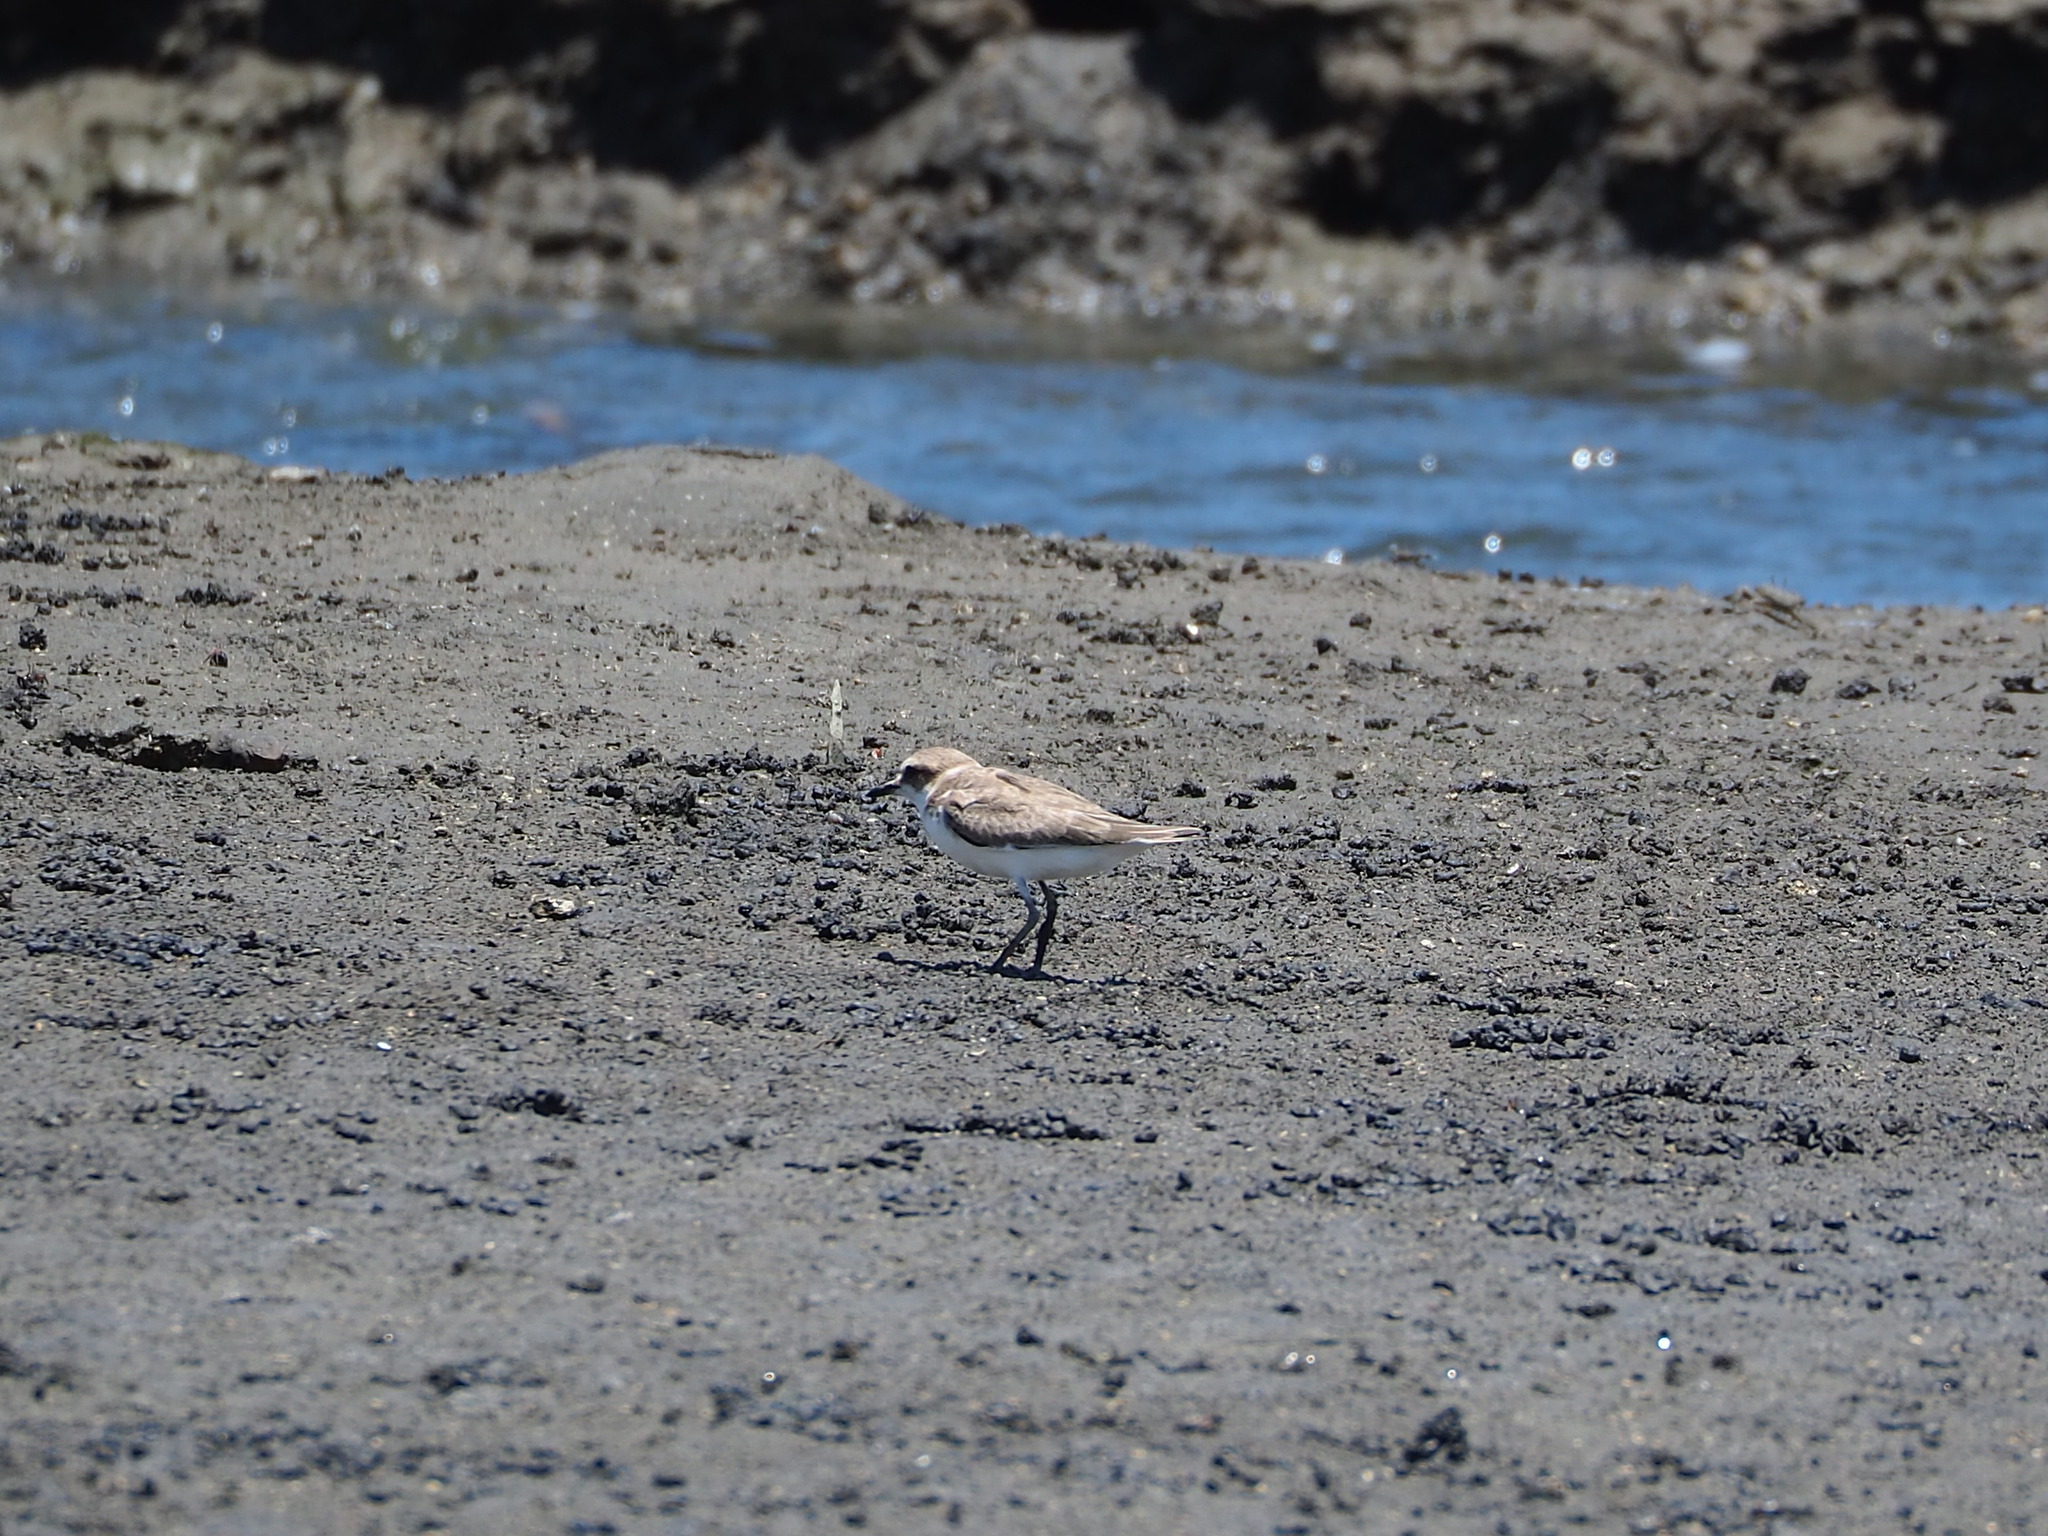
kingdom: Animalia
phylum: Chordata
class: Aves
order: Charadriiformes
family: Charadriidae
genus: Charadrius
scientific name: Charadrius alexandrinus
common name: Kentish plover
